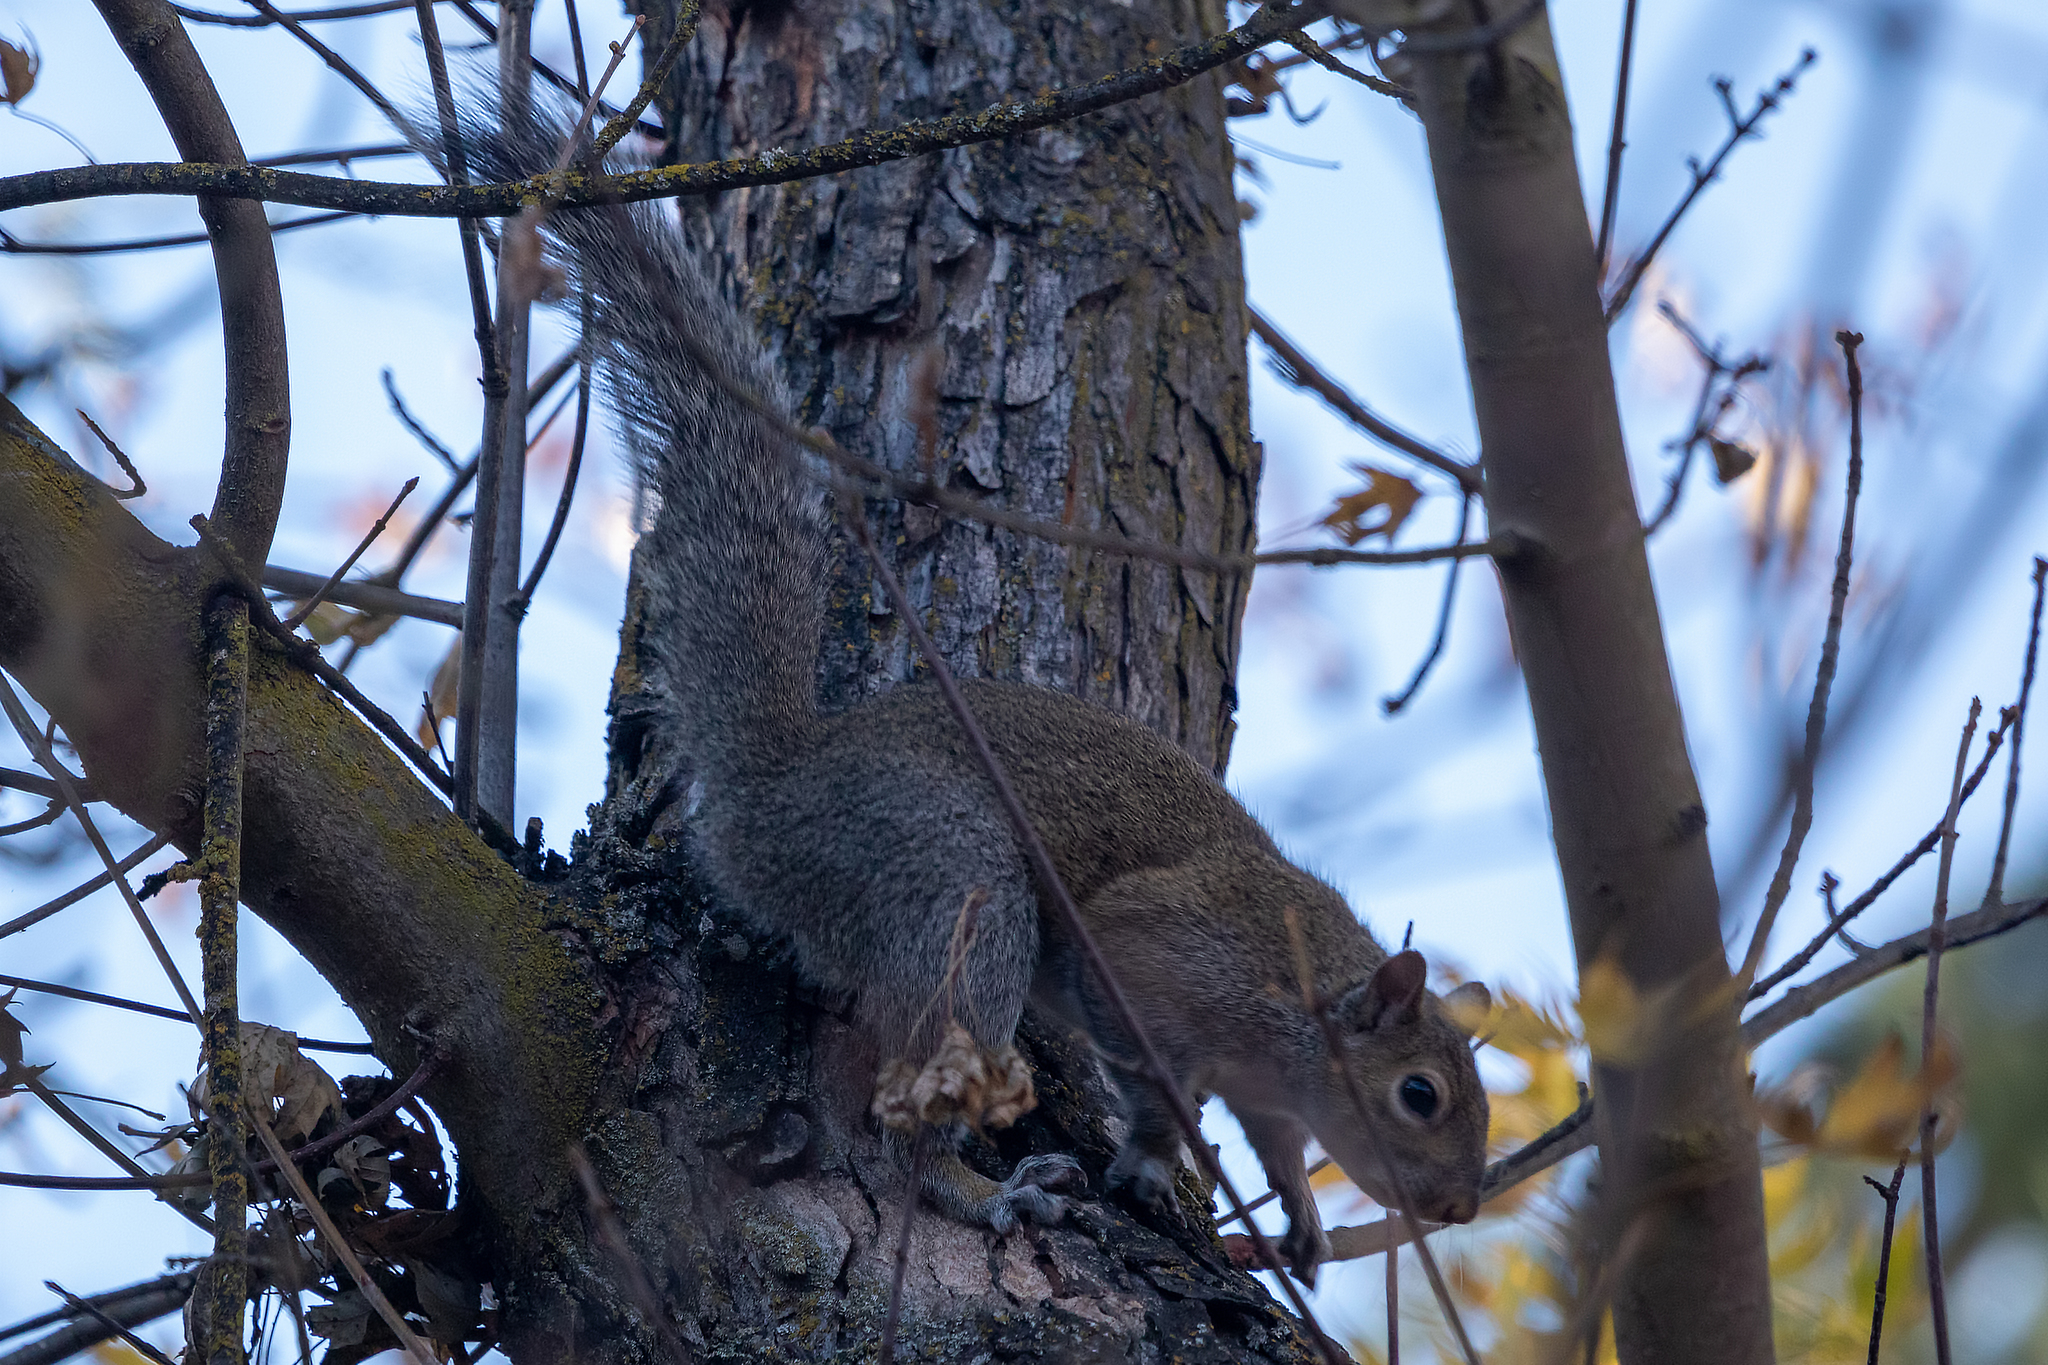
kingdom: Animalia
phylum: Chordata
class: Mammalia
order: Rodentia
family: Sciuridae
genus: Sciurus
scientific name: Sciurus carolinensis
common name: Eastern gray squirrel
